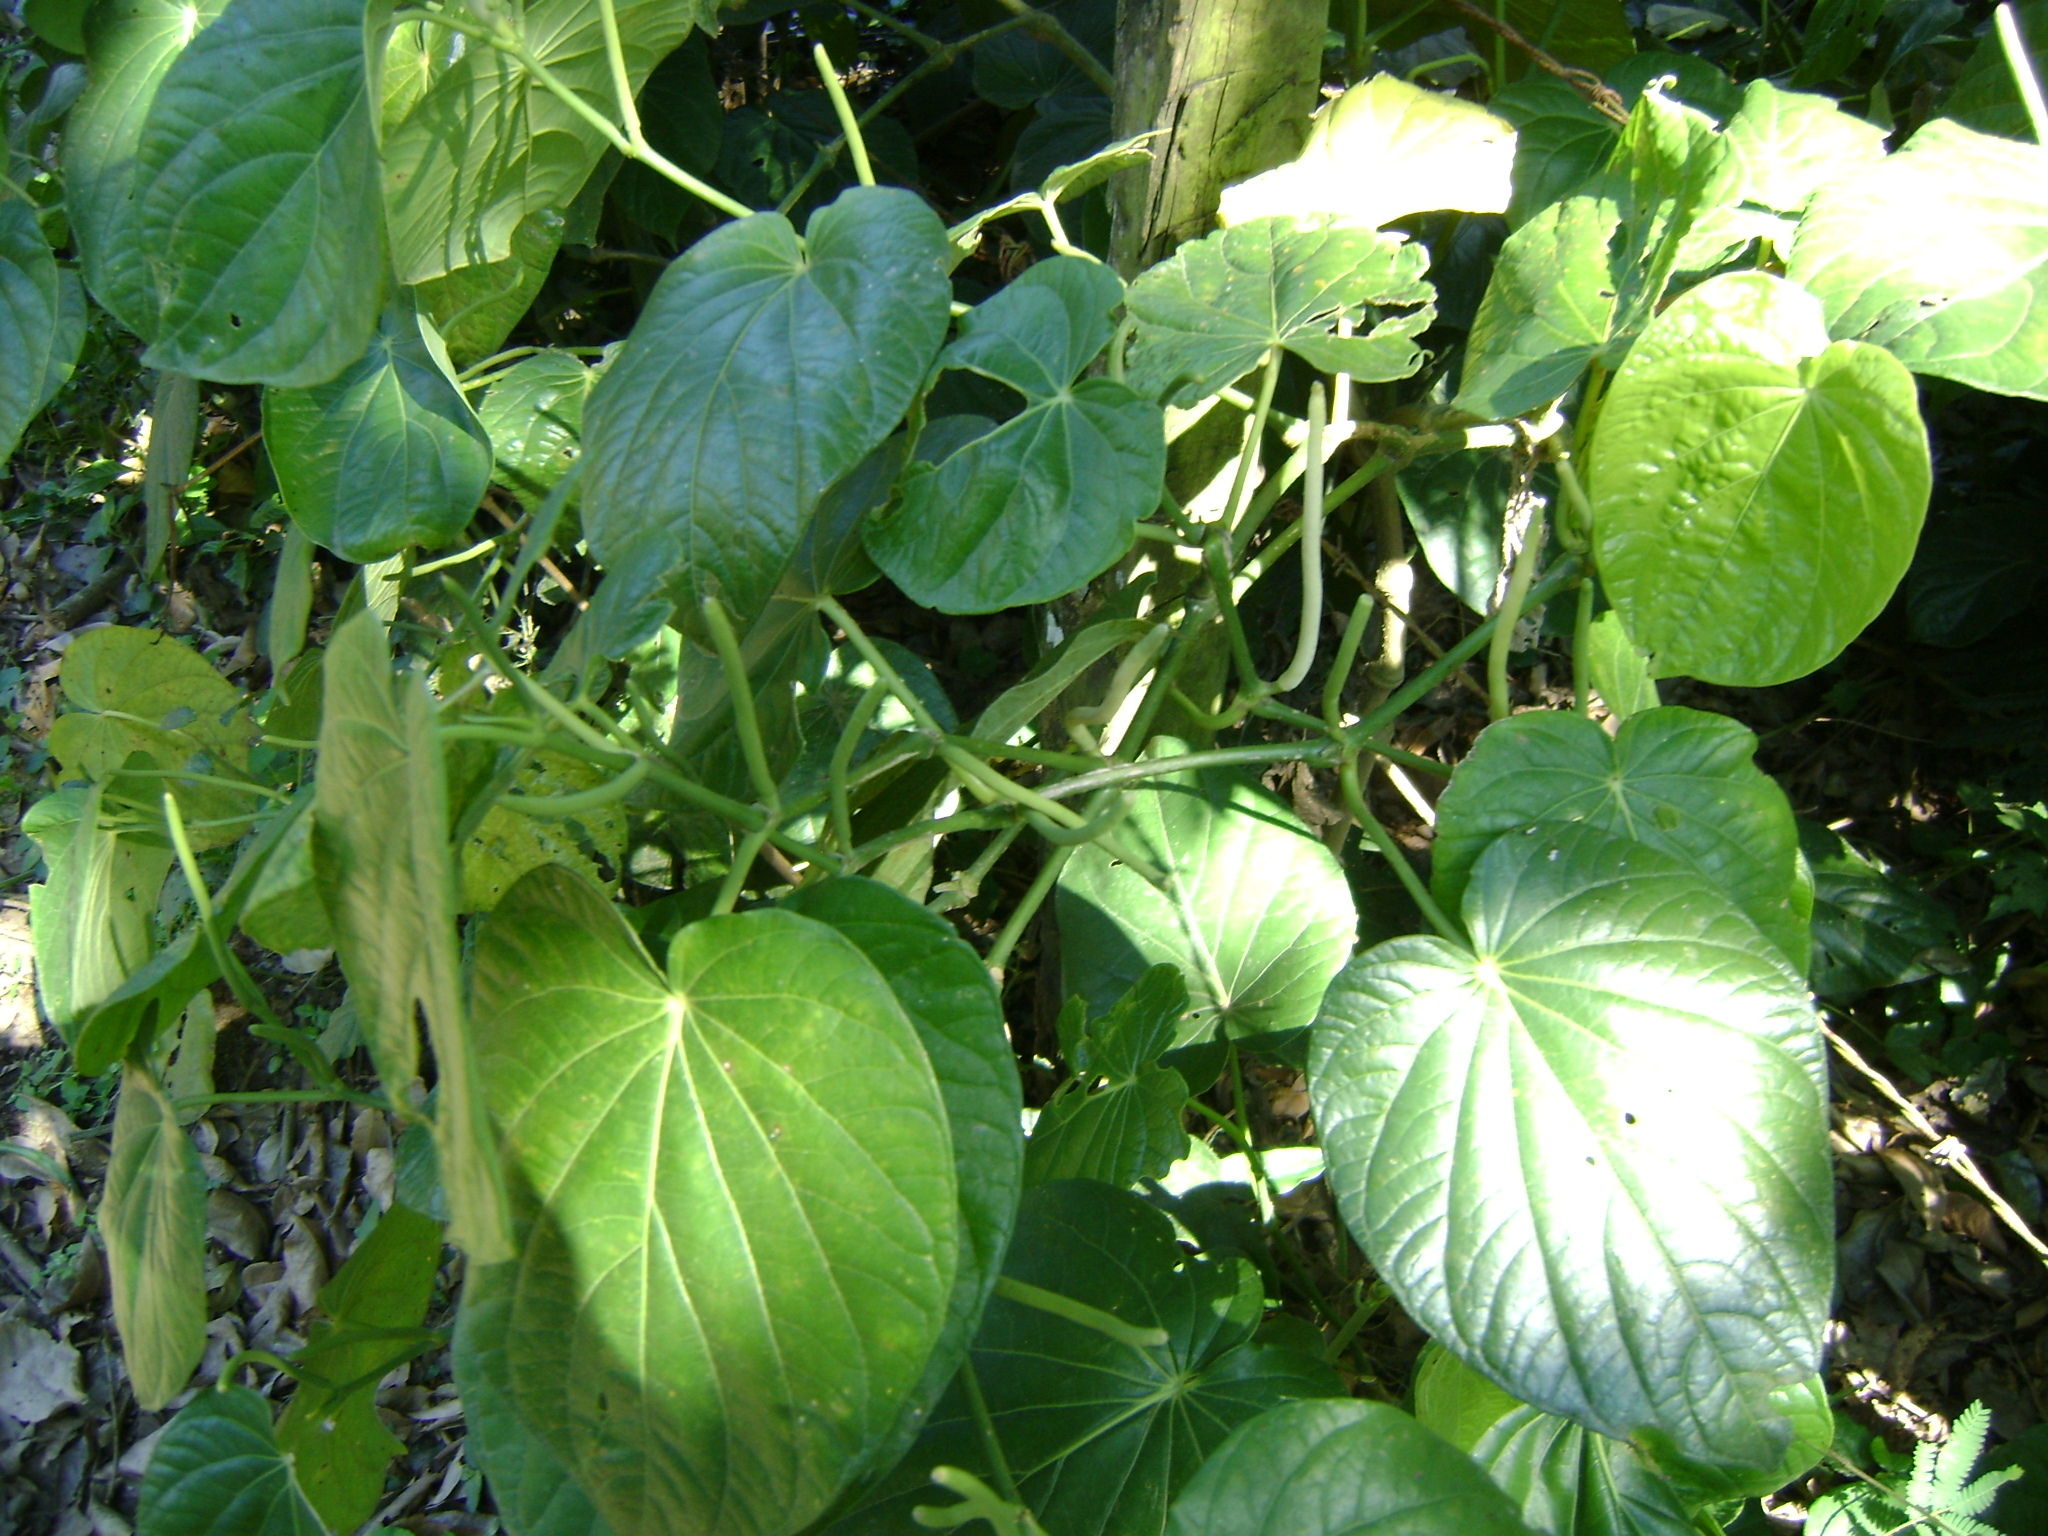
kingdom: Plantae
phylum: Tracheophyta
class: Magnoliopsida
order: Piperales
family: Piperaceae
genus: Piper
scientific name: Piper schiedeanum
